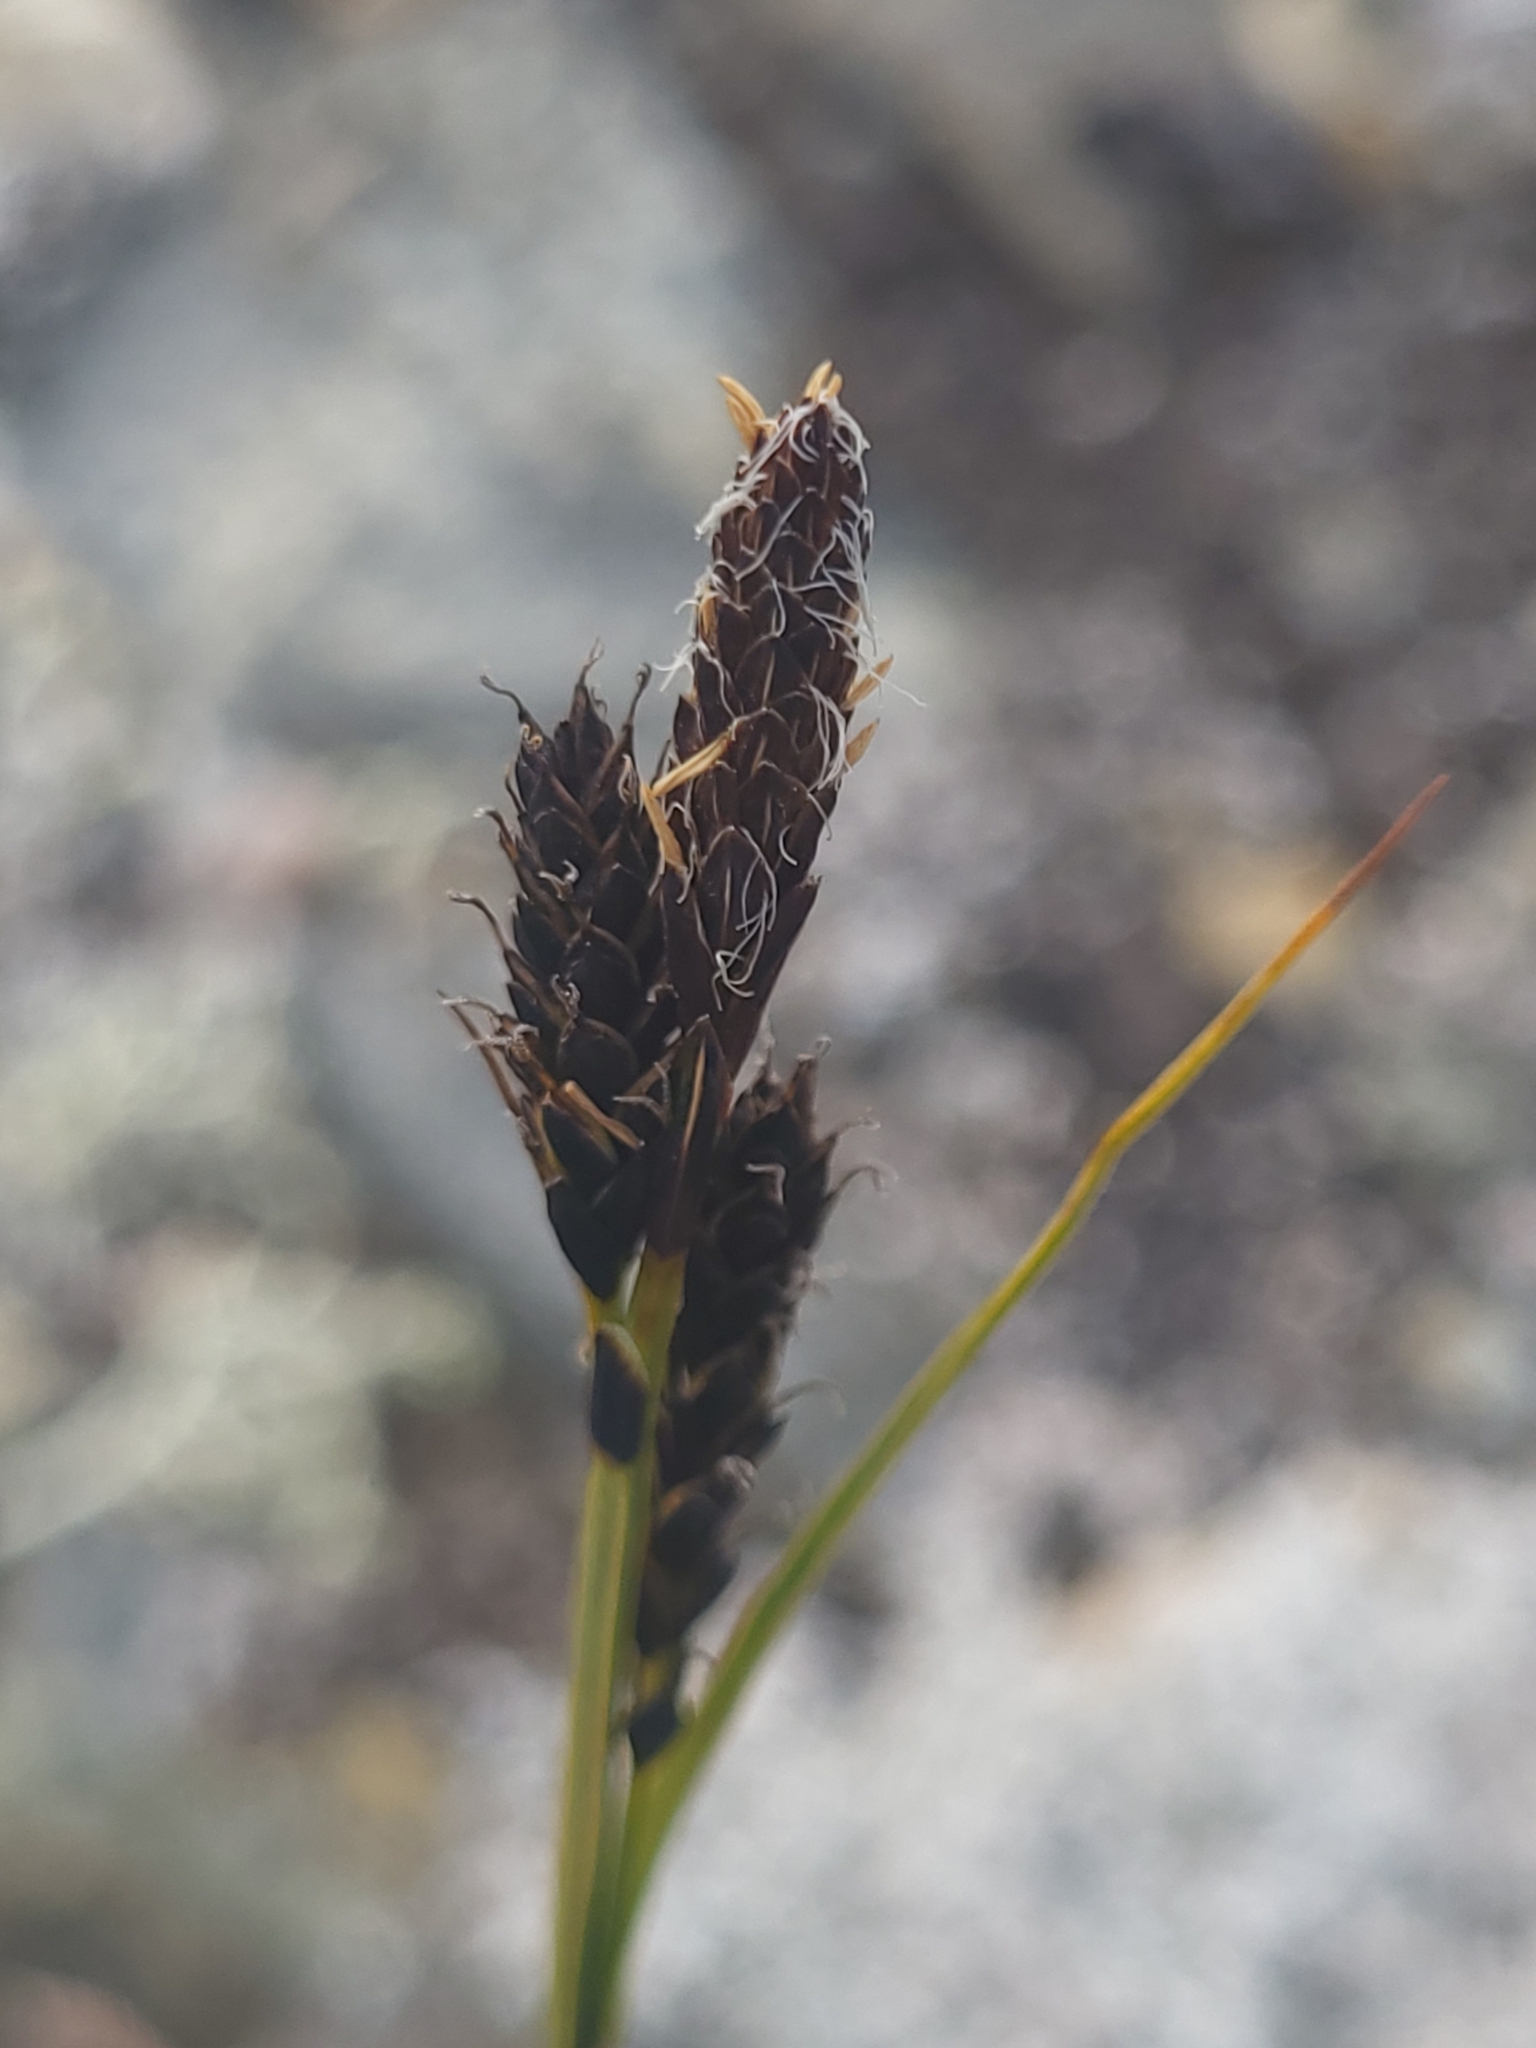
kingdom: Plantae
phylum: Tracheophyta
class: Liliopsida
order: Poales
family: Cyperaceae
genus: Carex
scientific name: Carex bigelowii
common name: Stiff sedge
